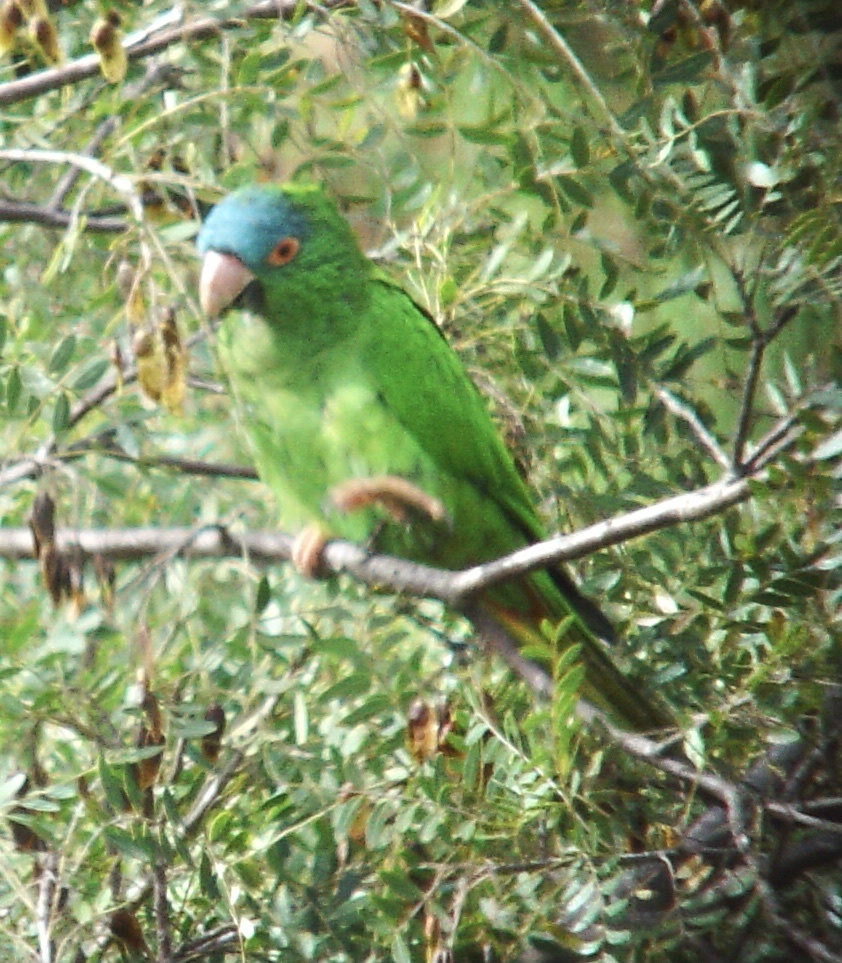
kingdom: Animalia
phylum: Chordata
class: Aves
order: Psittaciformes
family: Psittacidae
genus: Aratinga
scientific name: Aratinga acuticaudata
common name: Blue-crowned parakeet
